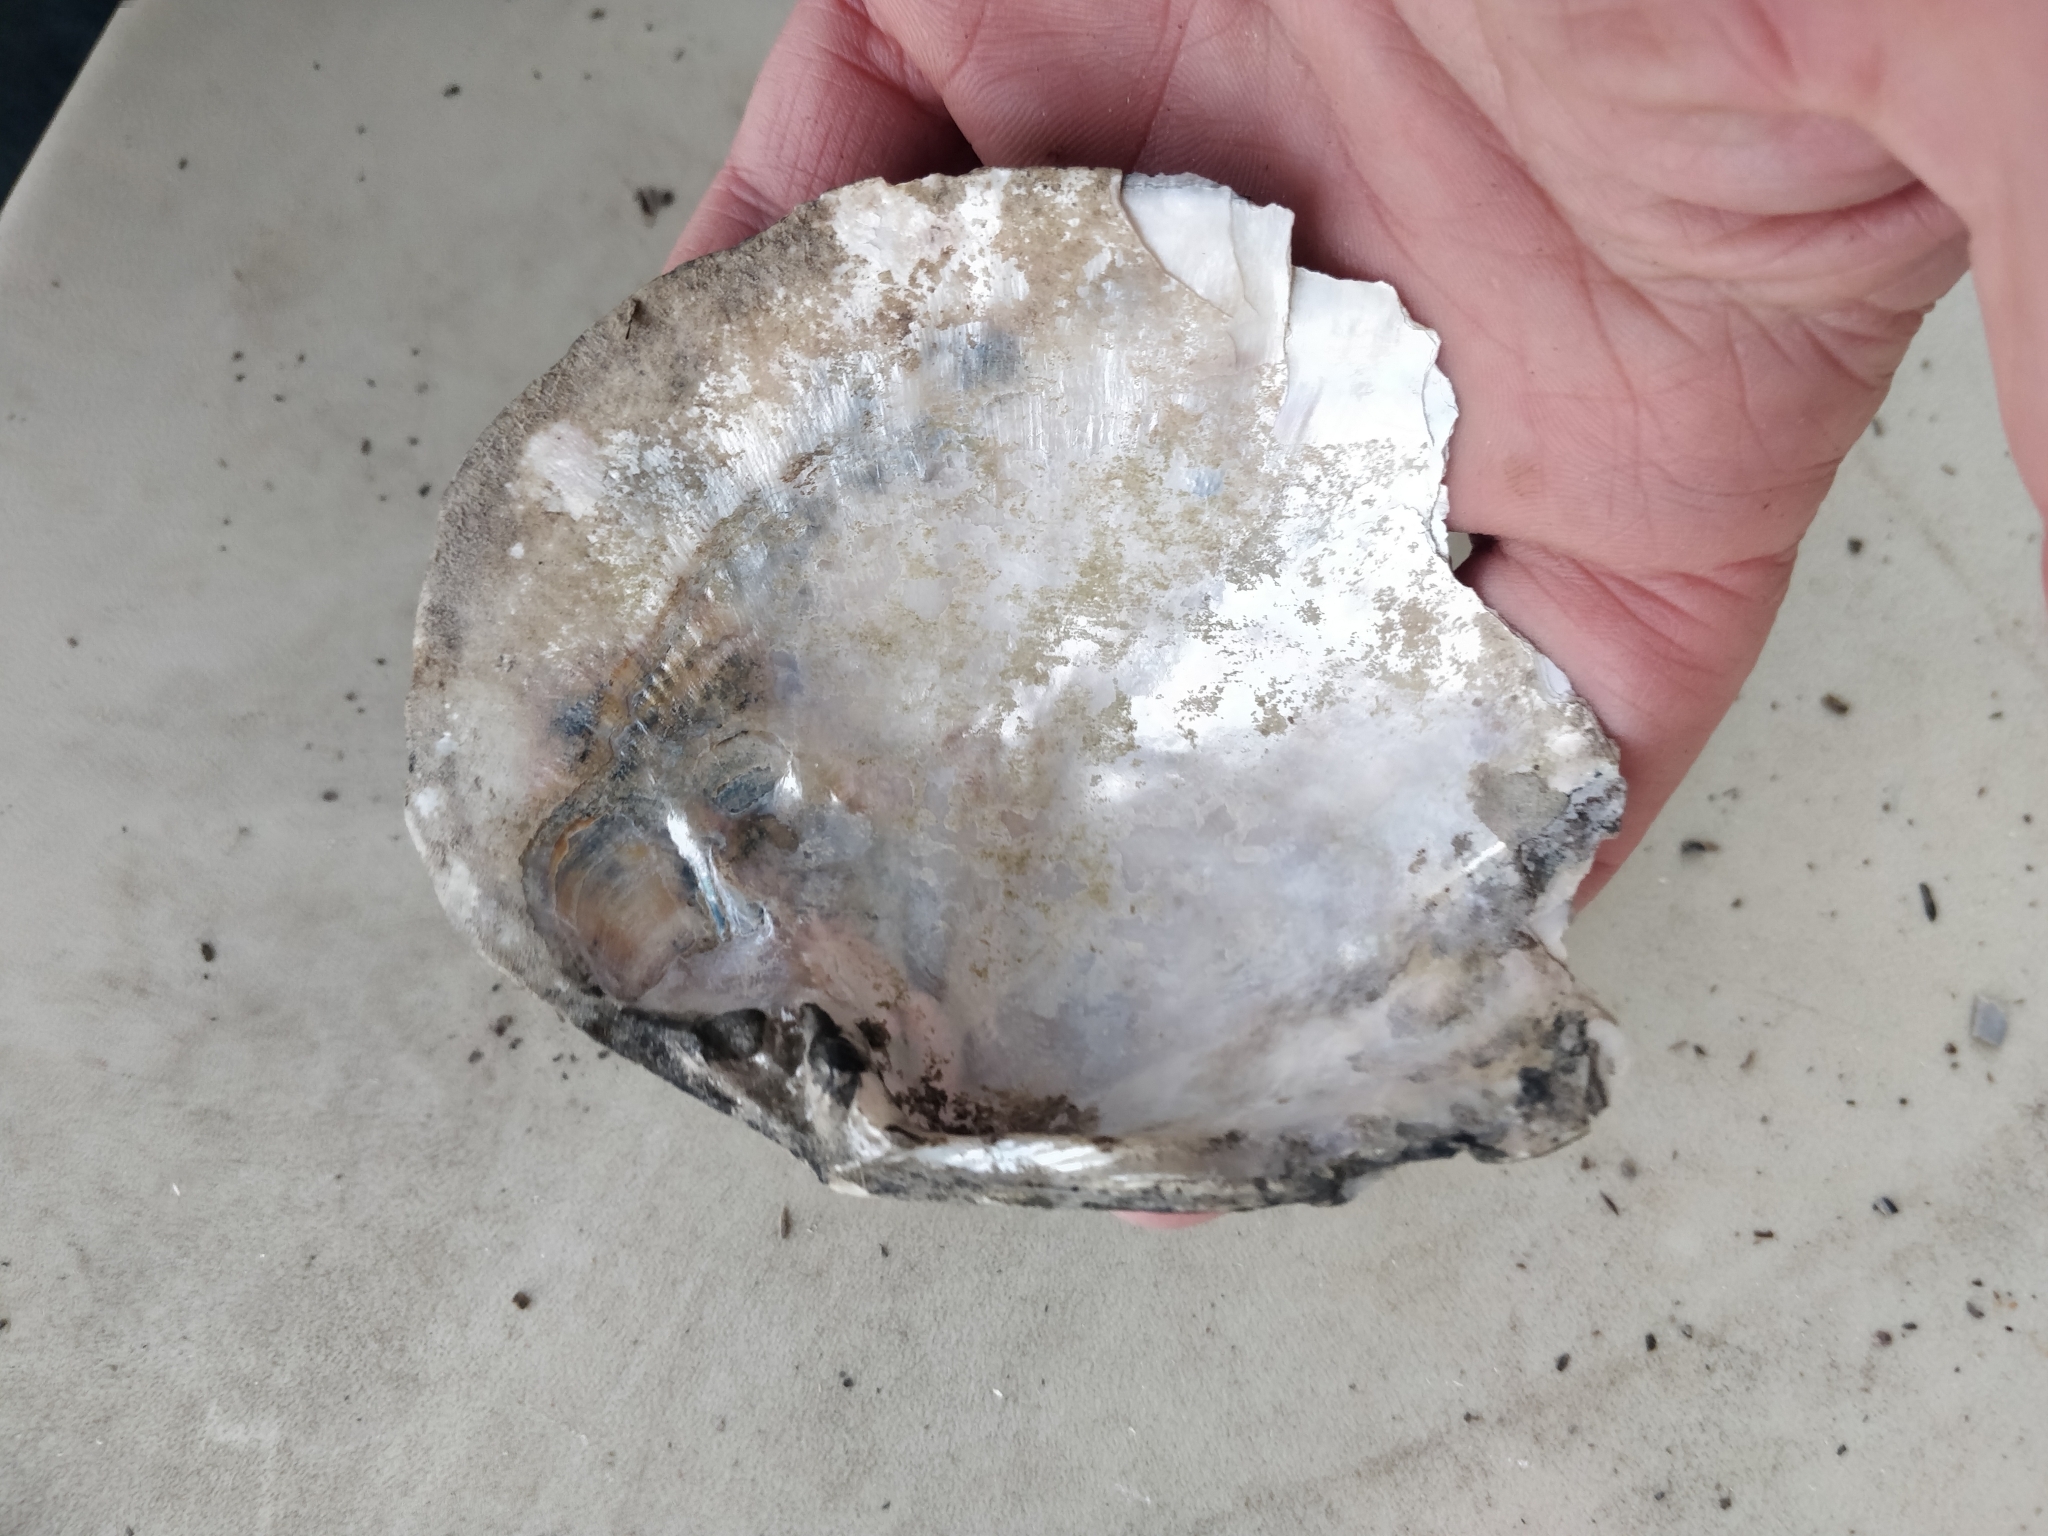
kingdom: Animalia
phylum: Mollusca
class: Bivalvia
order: Unionida
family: Unionidae
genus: Lasmigona
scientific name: Lasmigona complanata
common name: White heelsplitter
